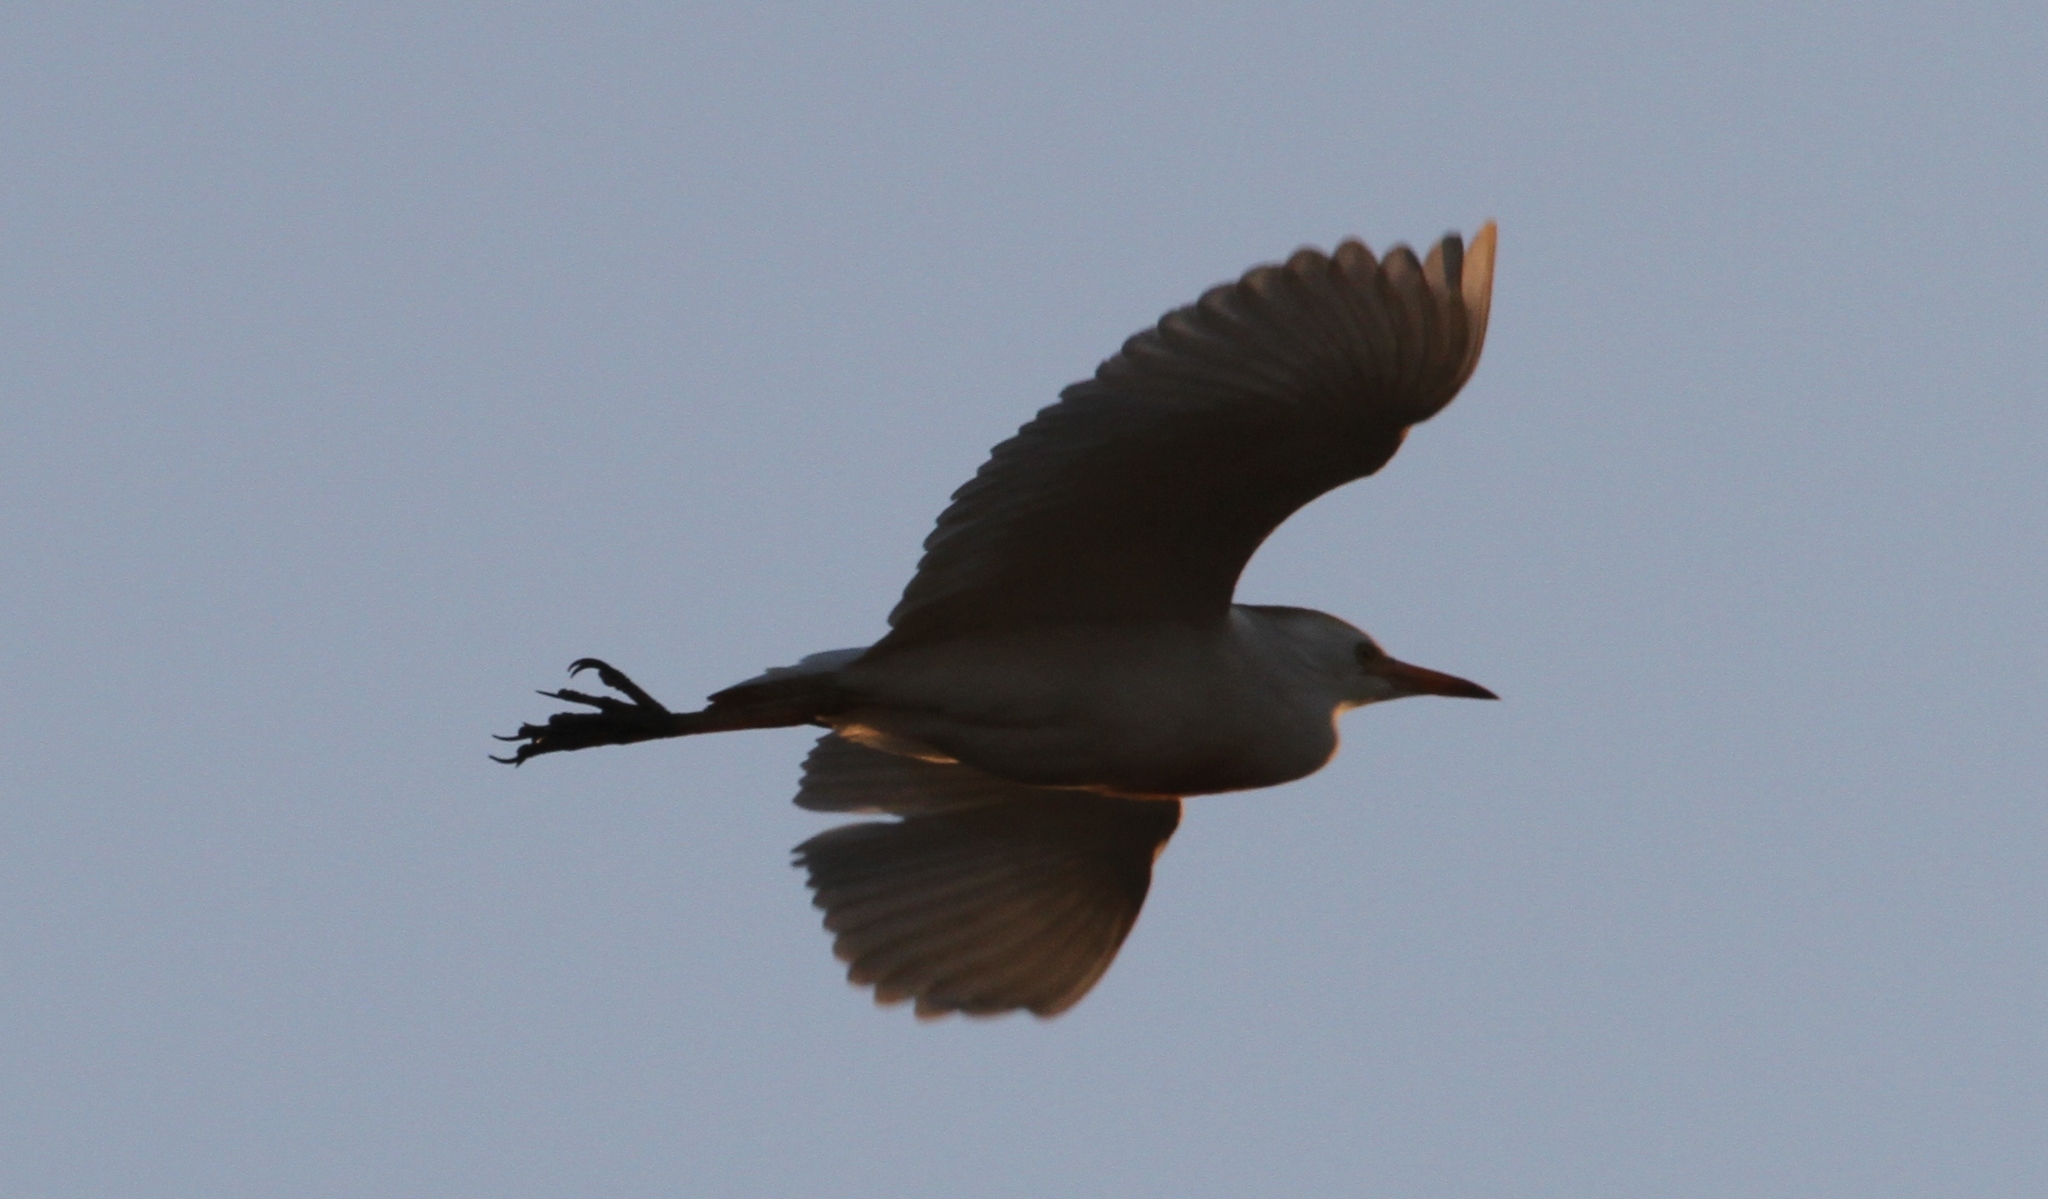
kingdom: Animalia
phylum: Chordata
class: Aves
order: Pelecaniformes
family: Ardeidae
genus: Bubulcus
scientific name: Bubulcus ibis
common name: Cattle egret
